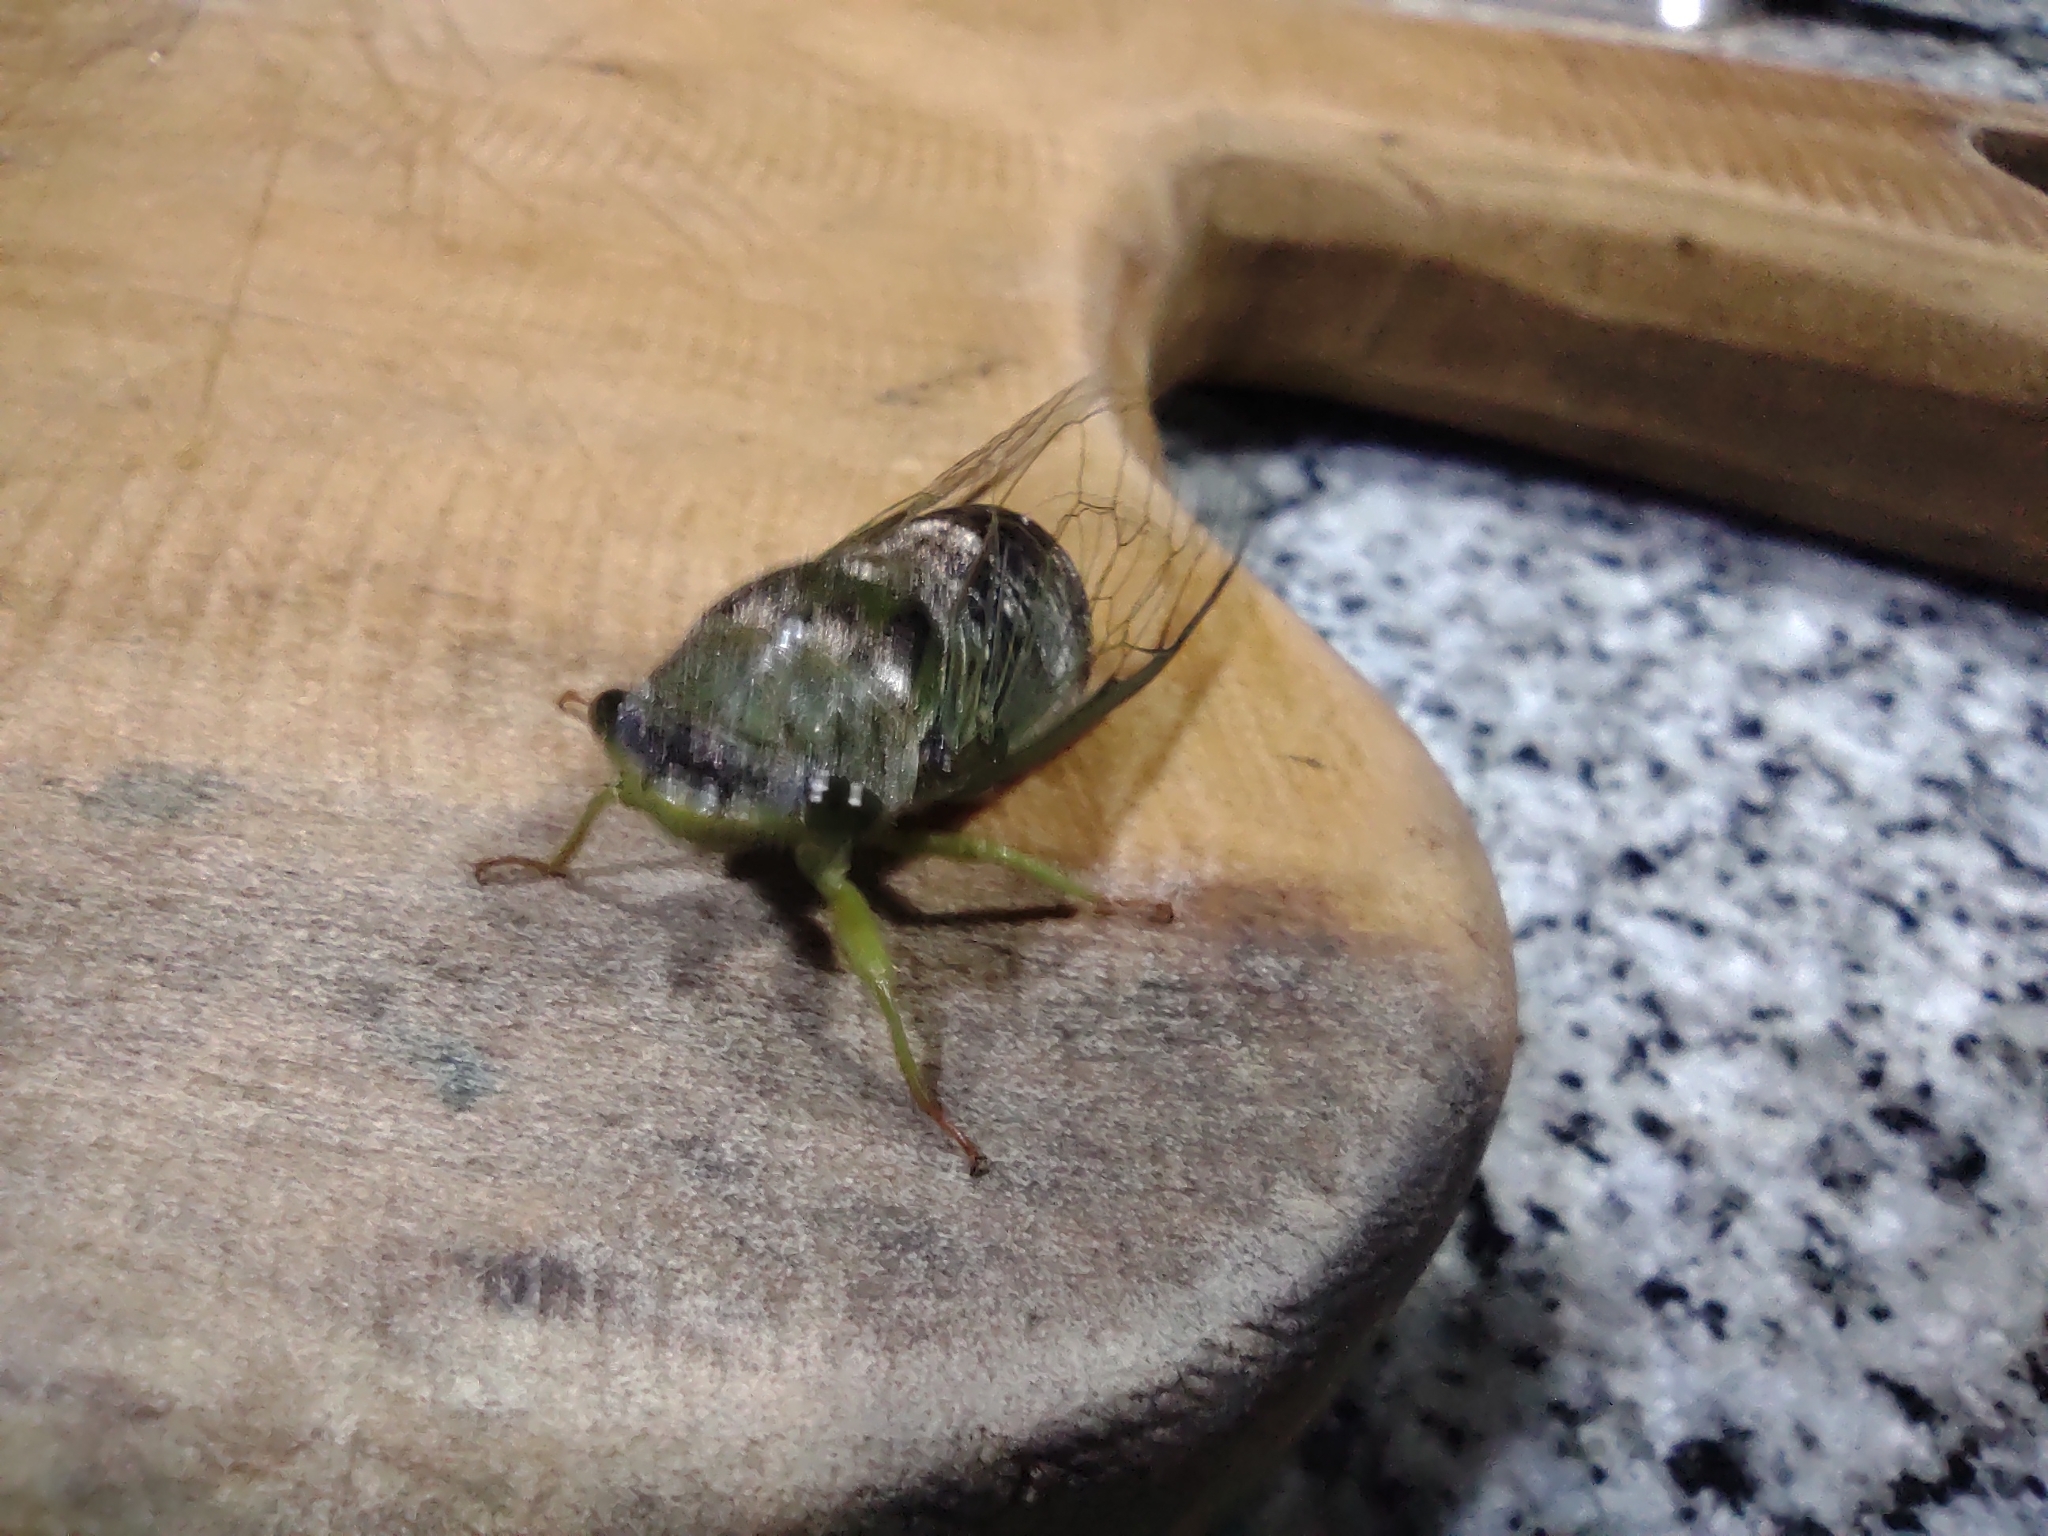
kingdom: Animalia
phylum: Arthropoda
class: Insecta
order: Hemiptera
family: Cicadidae
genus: Acanthoventris
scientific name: Acanthoventris drewseni
